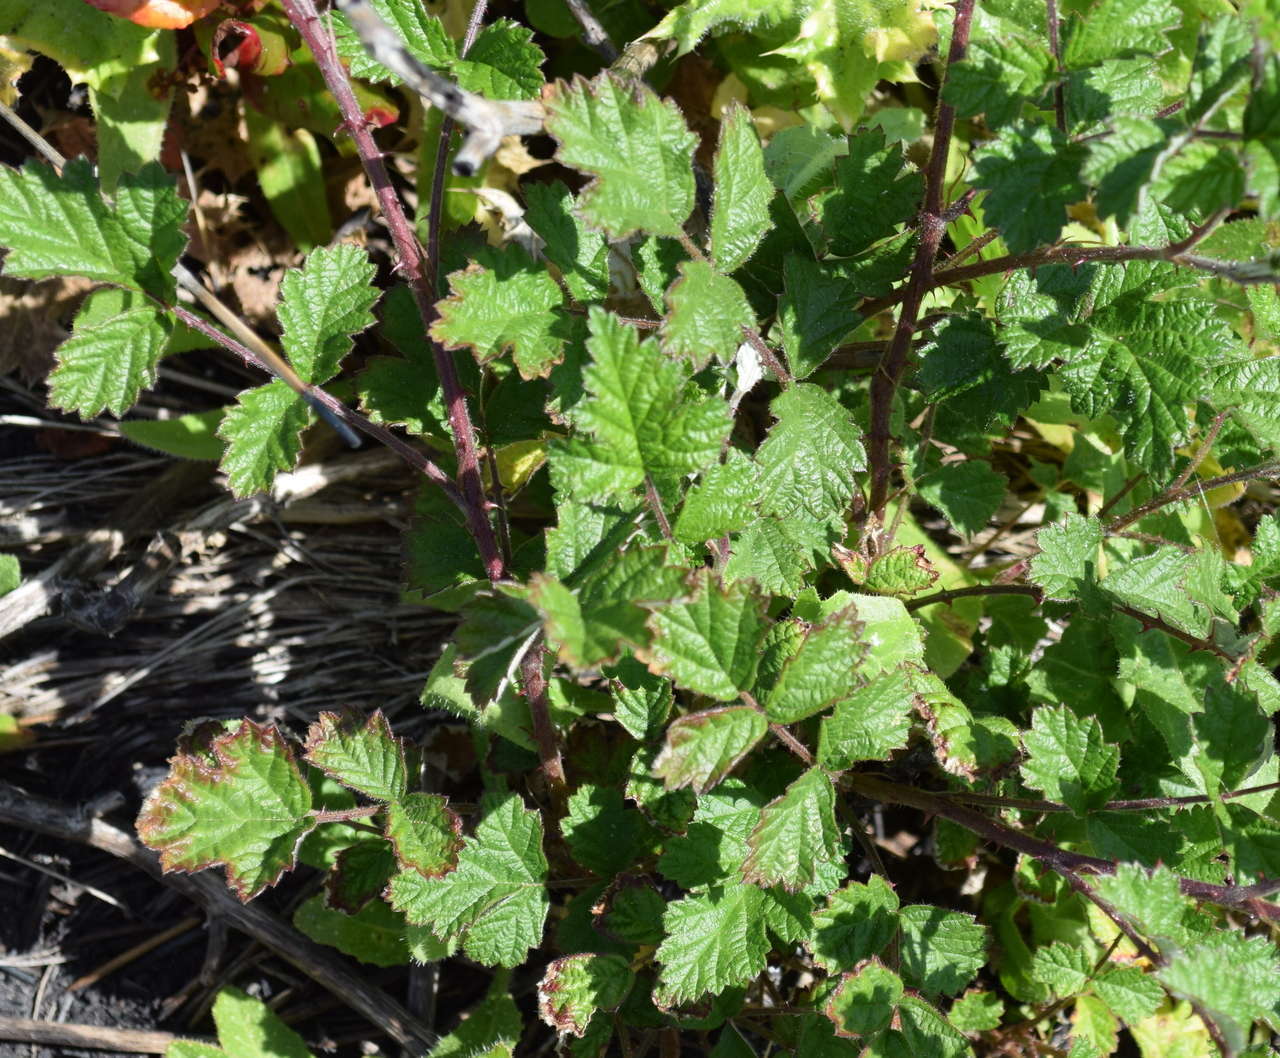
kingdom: Plantae
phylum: Tracheophyta
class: Magnoliopsida
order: Rosales
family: Rosaceae
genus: Rubus
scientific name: Rubus parvifolius
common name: Threeleaf blackberry
